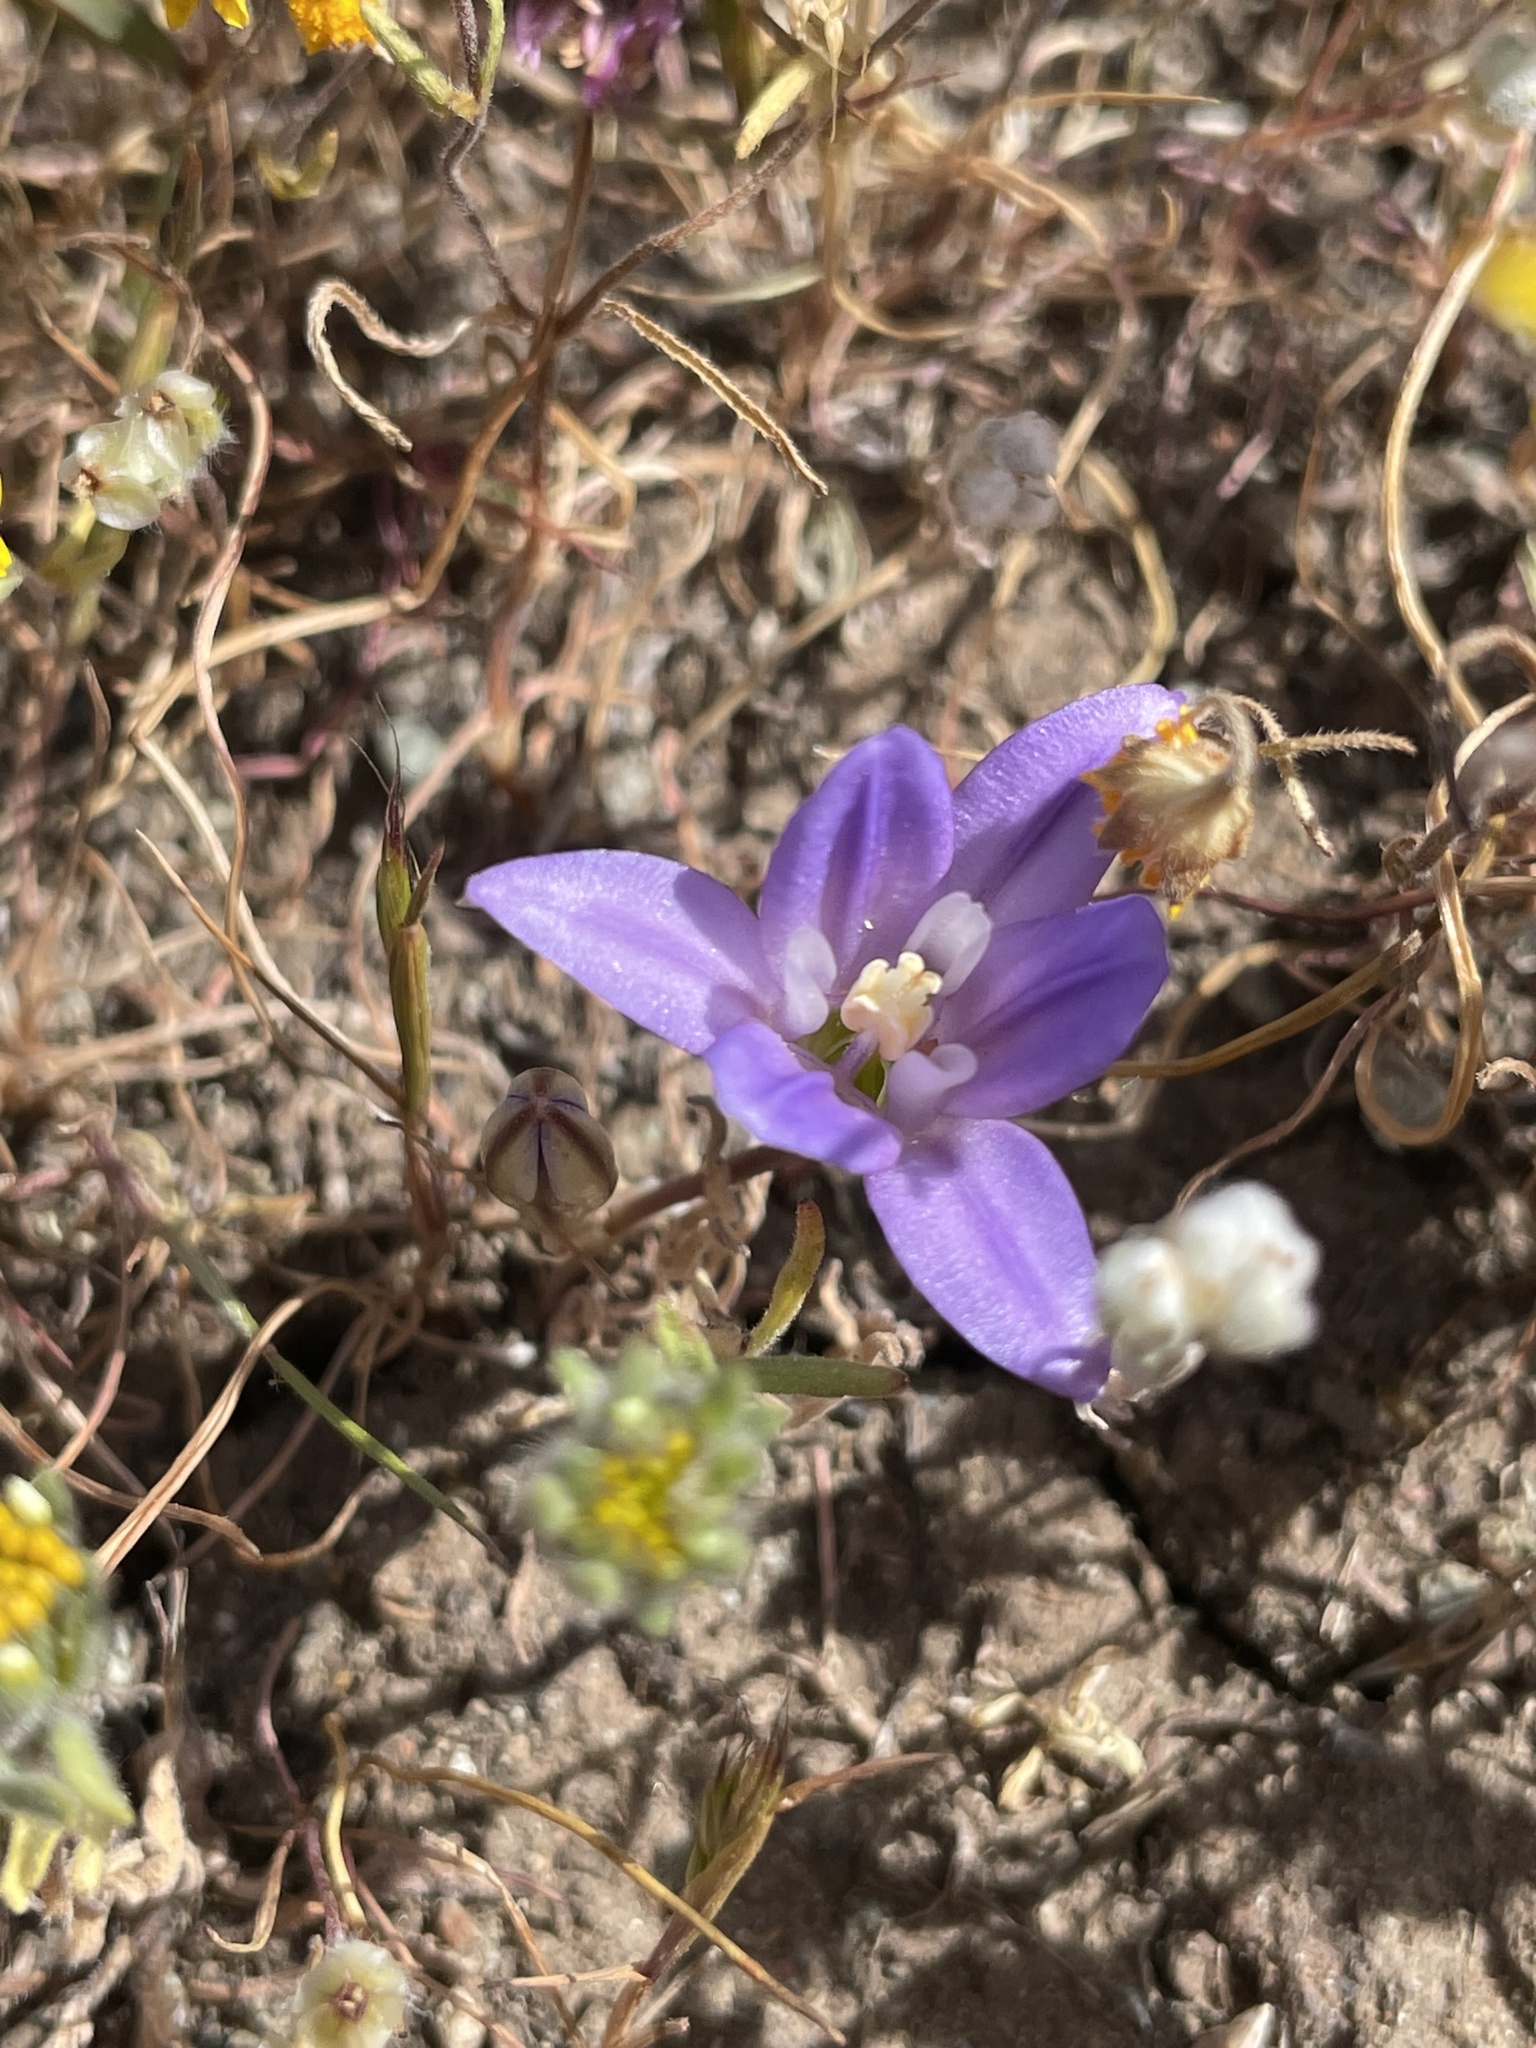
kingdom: Plantae
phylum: Tracheophyta
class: Liliopsida
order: Asparagales
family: Asparagaceae
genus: Brodiaea
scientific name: Brodiaea terrestris
